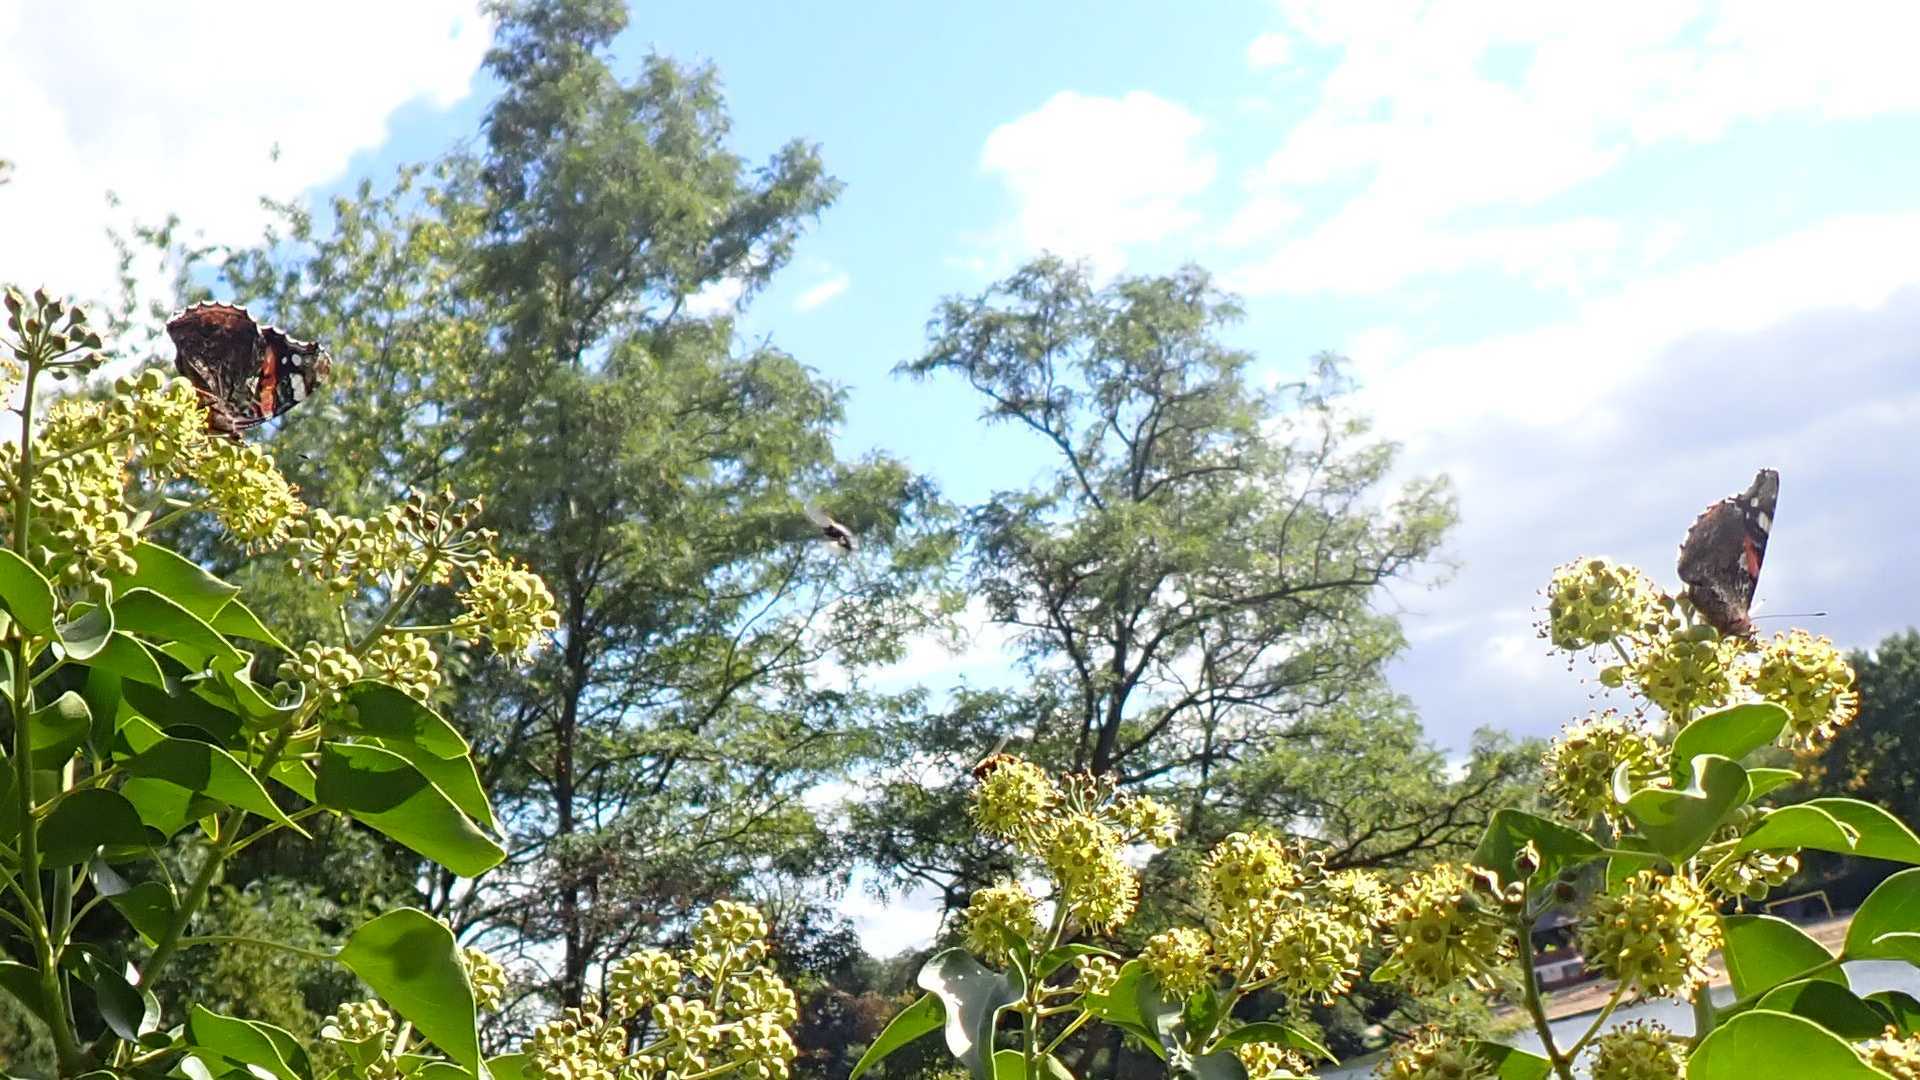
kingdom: Animalia
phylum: Arthropoda
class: Insecta
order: Lepidoptera
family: Nymphalidae
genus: Vanessa
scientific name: Vanessa atalanta
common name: Red admiral
